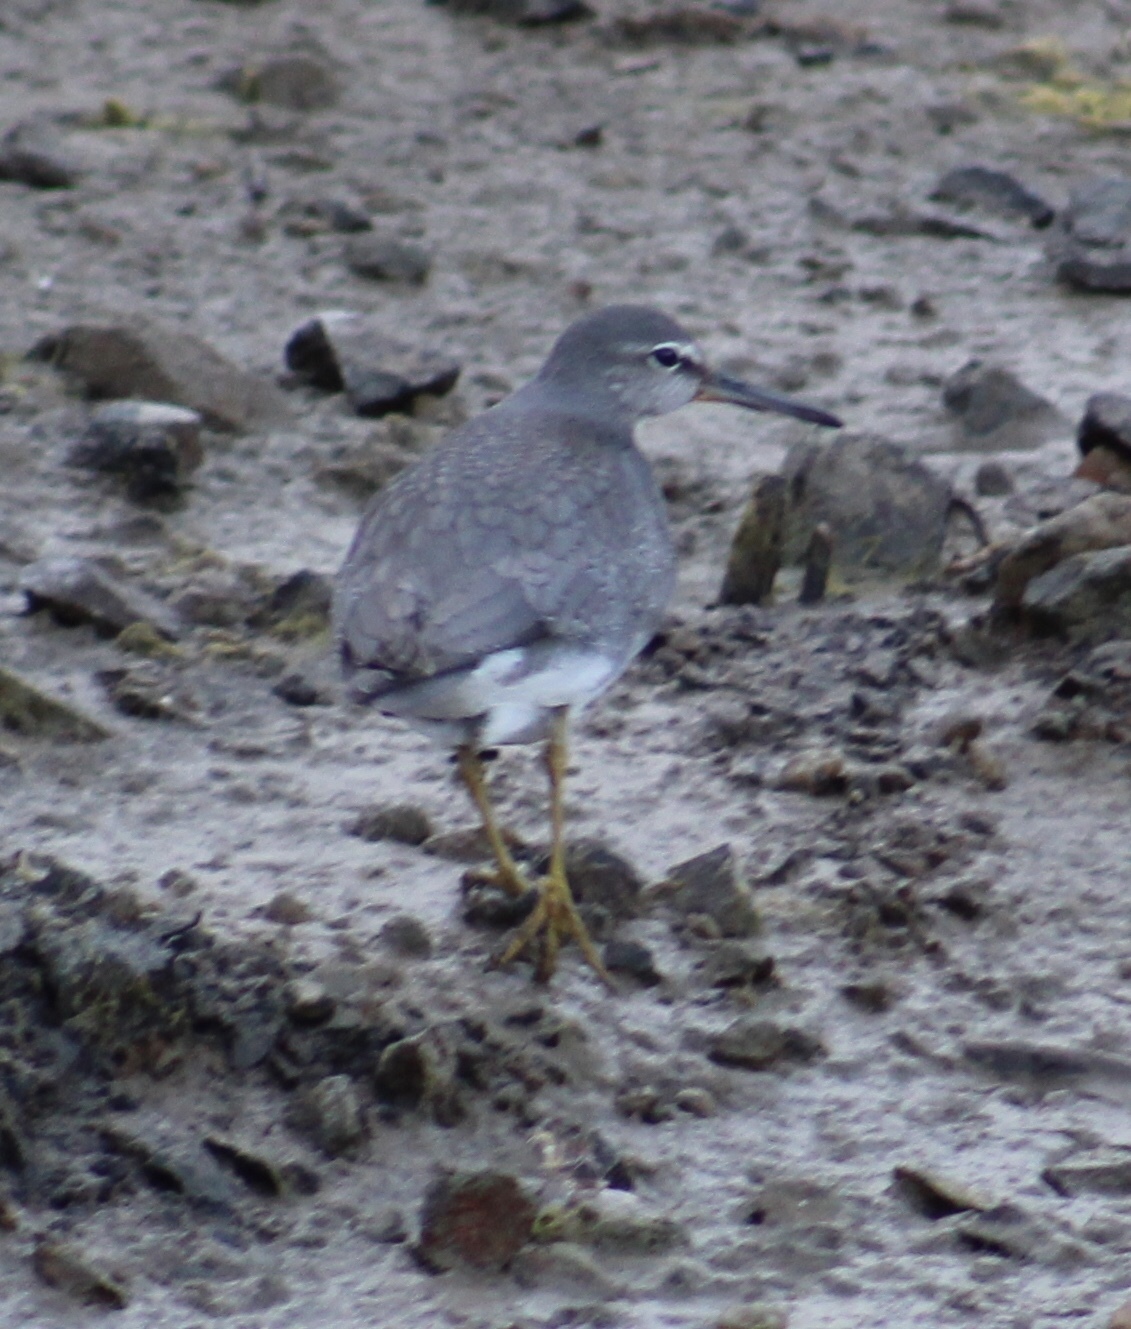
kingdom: Animalia
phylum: Chordata
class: Aves
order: Charadriiformes
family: Scolopacidae
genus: Tringa
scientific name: Tringa incana
